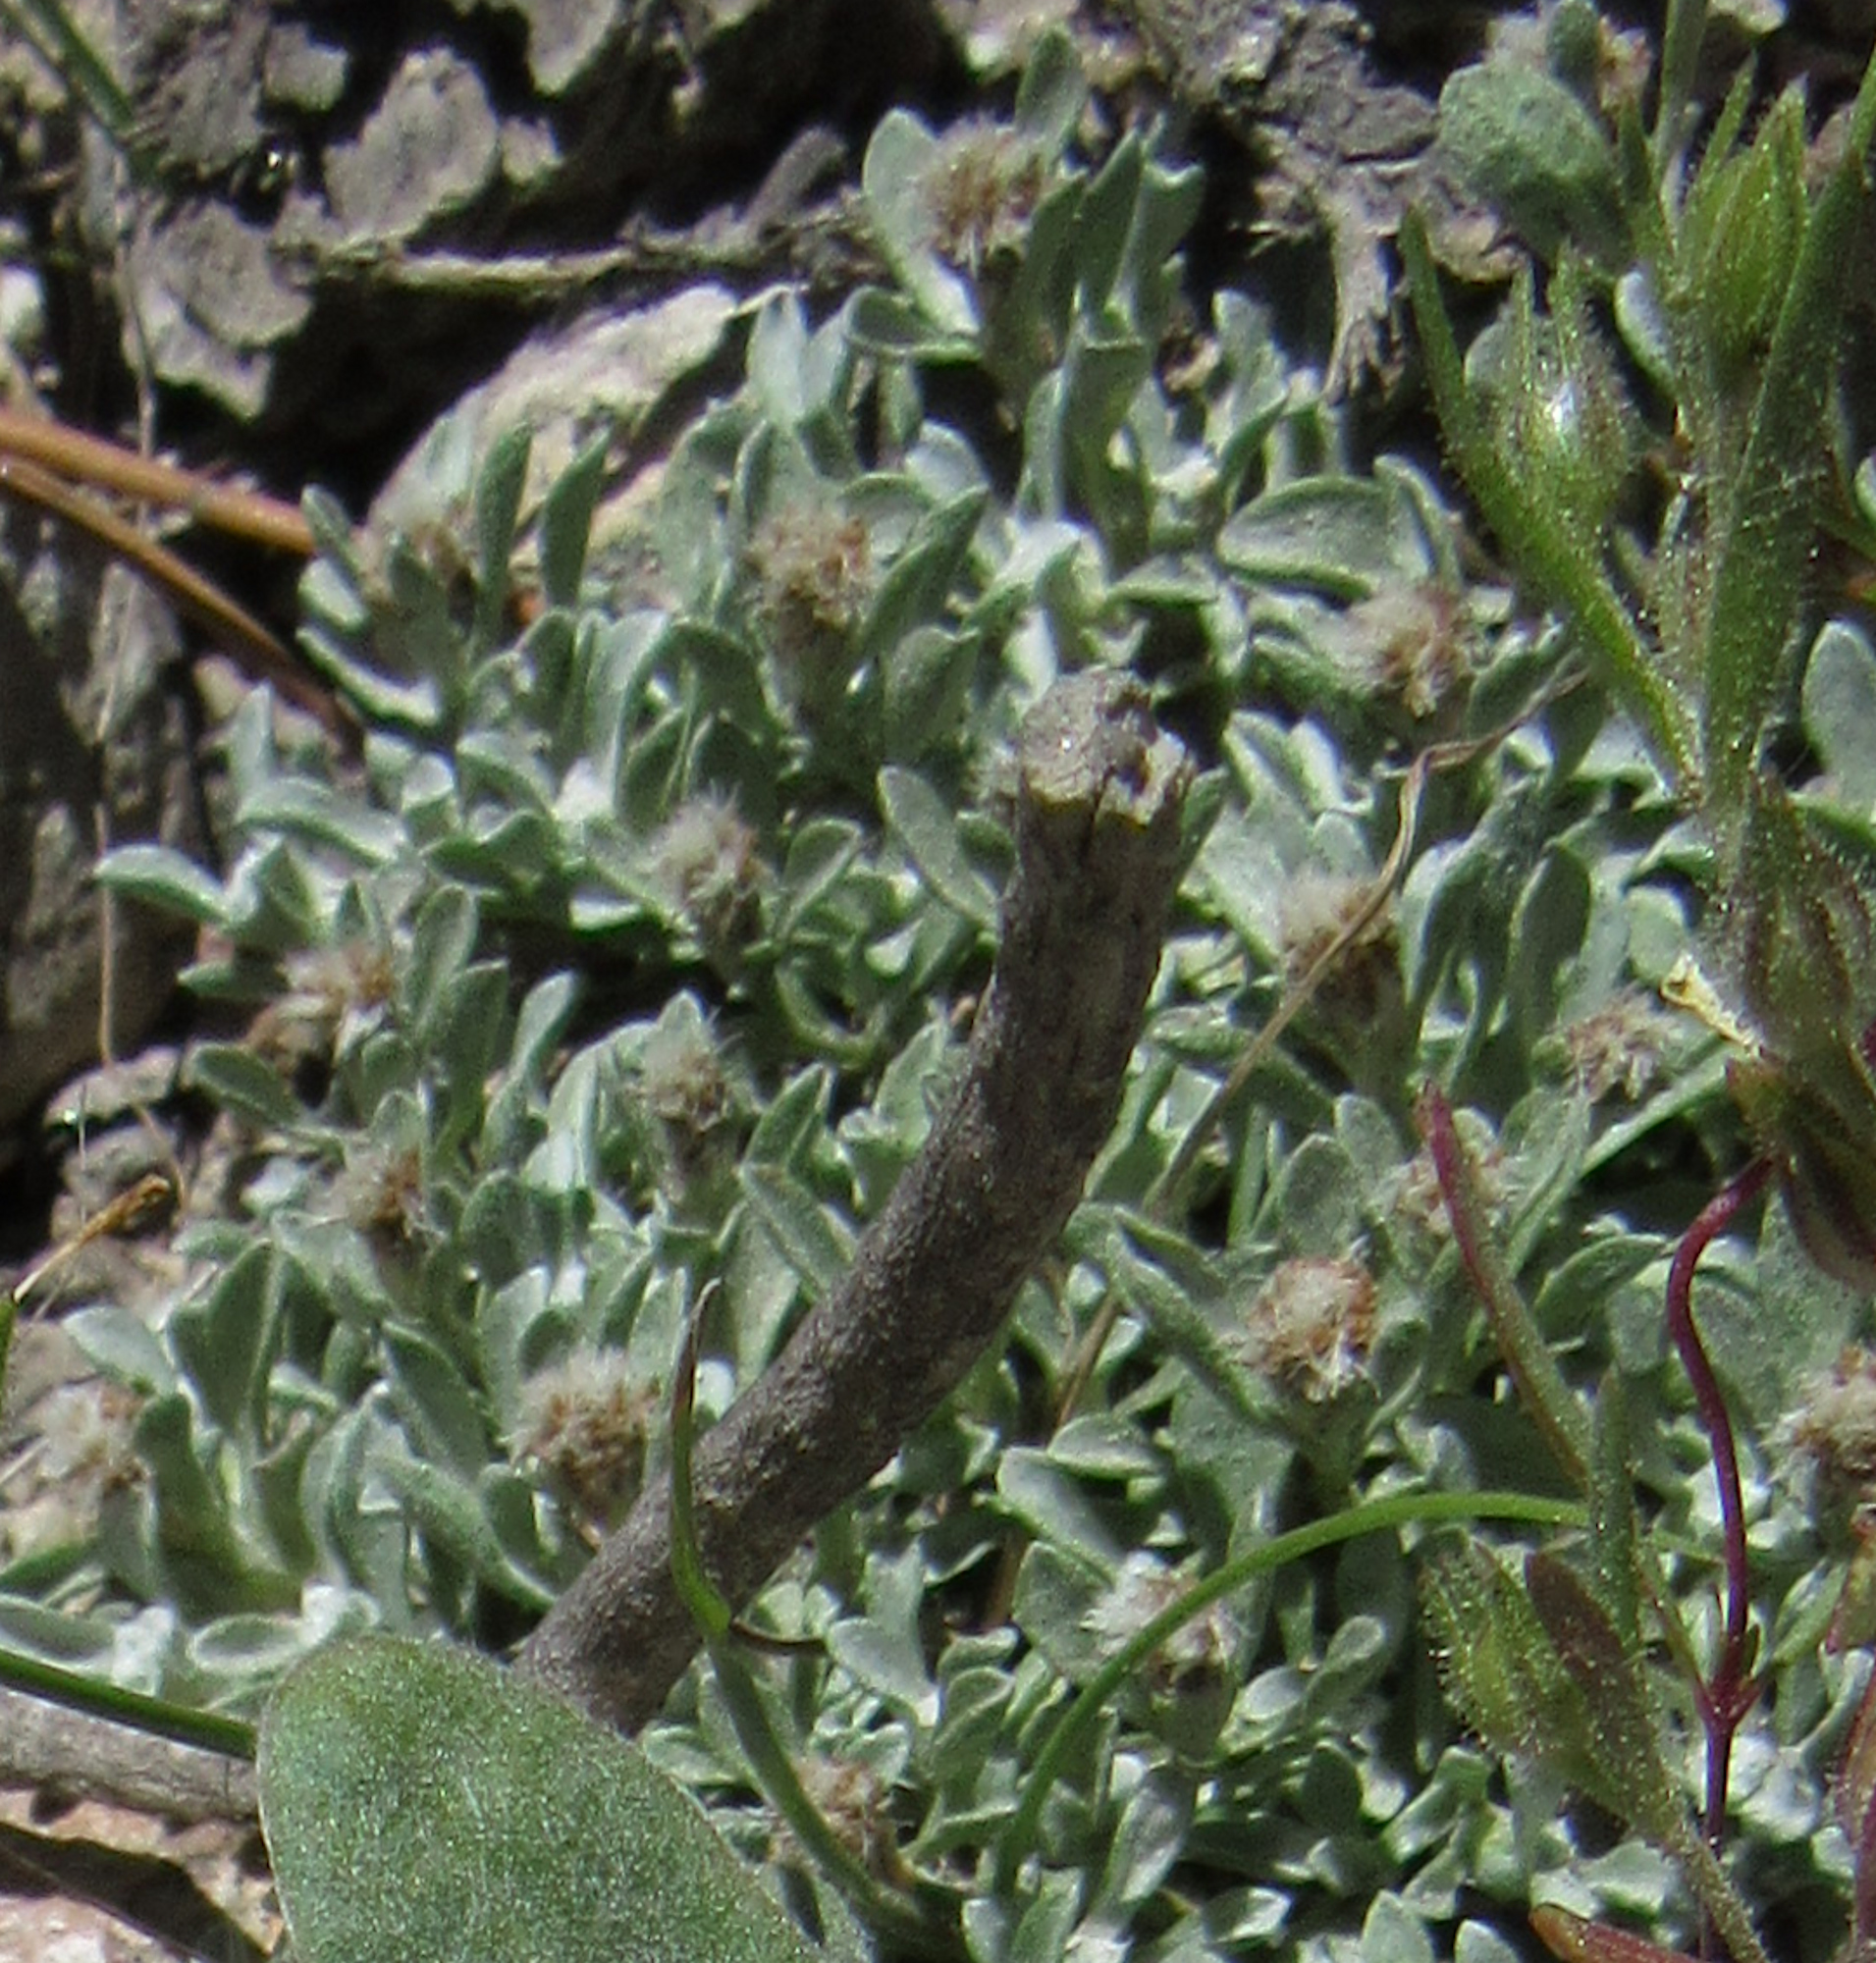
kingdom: Plantae
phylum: Tracheophyta
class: Magnoliopsida
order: Asterales
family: Asteraceae
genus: Antennaria
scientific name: Antennaria dimorpha
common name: Cushion pussytoes
